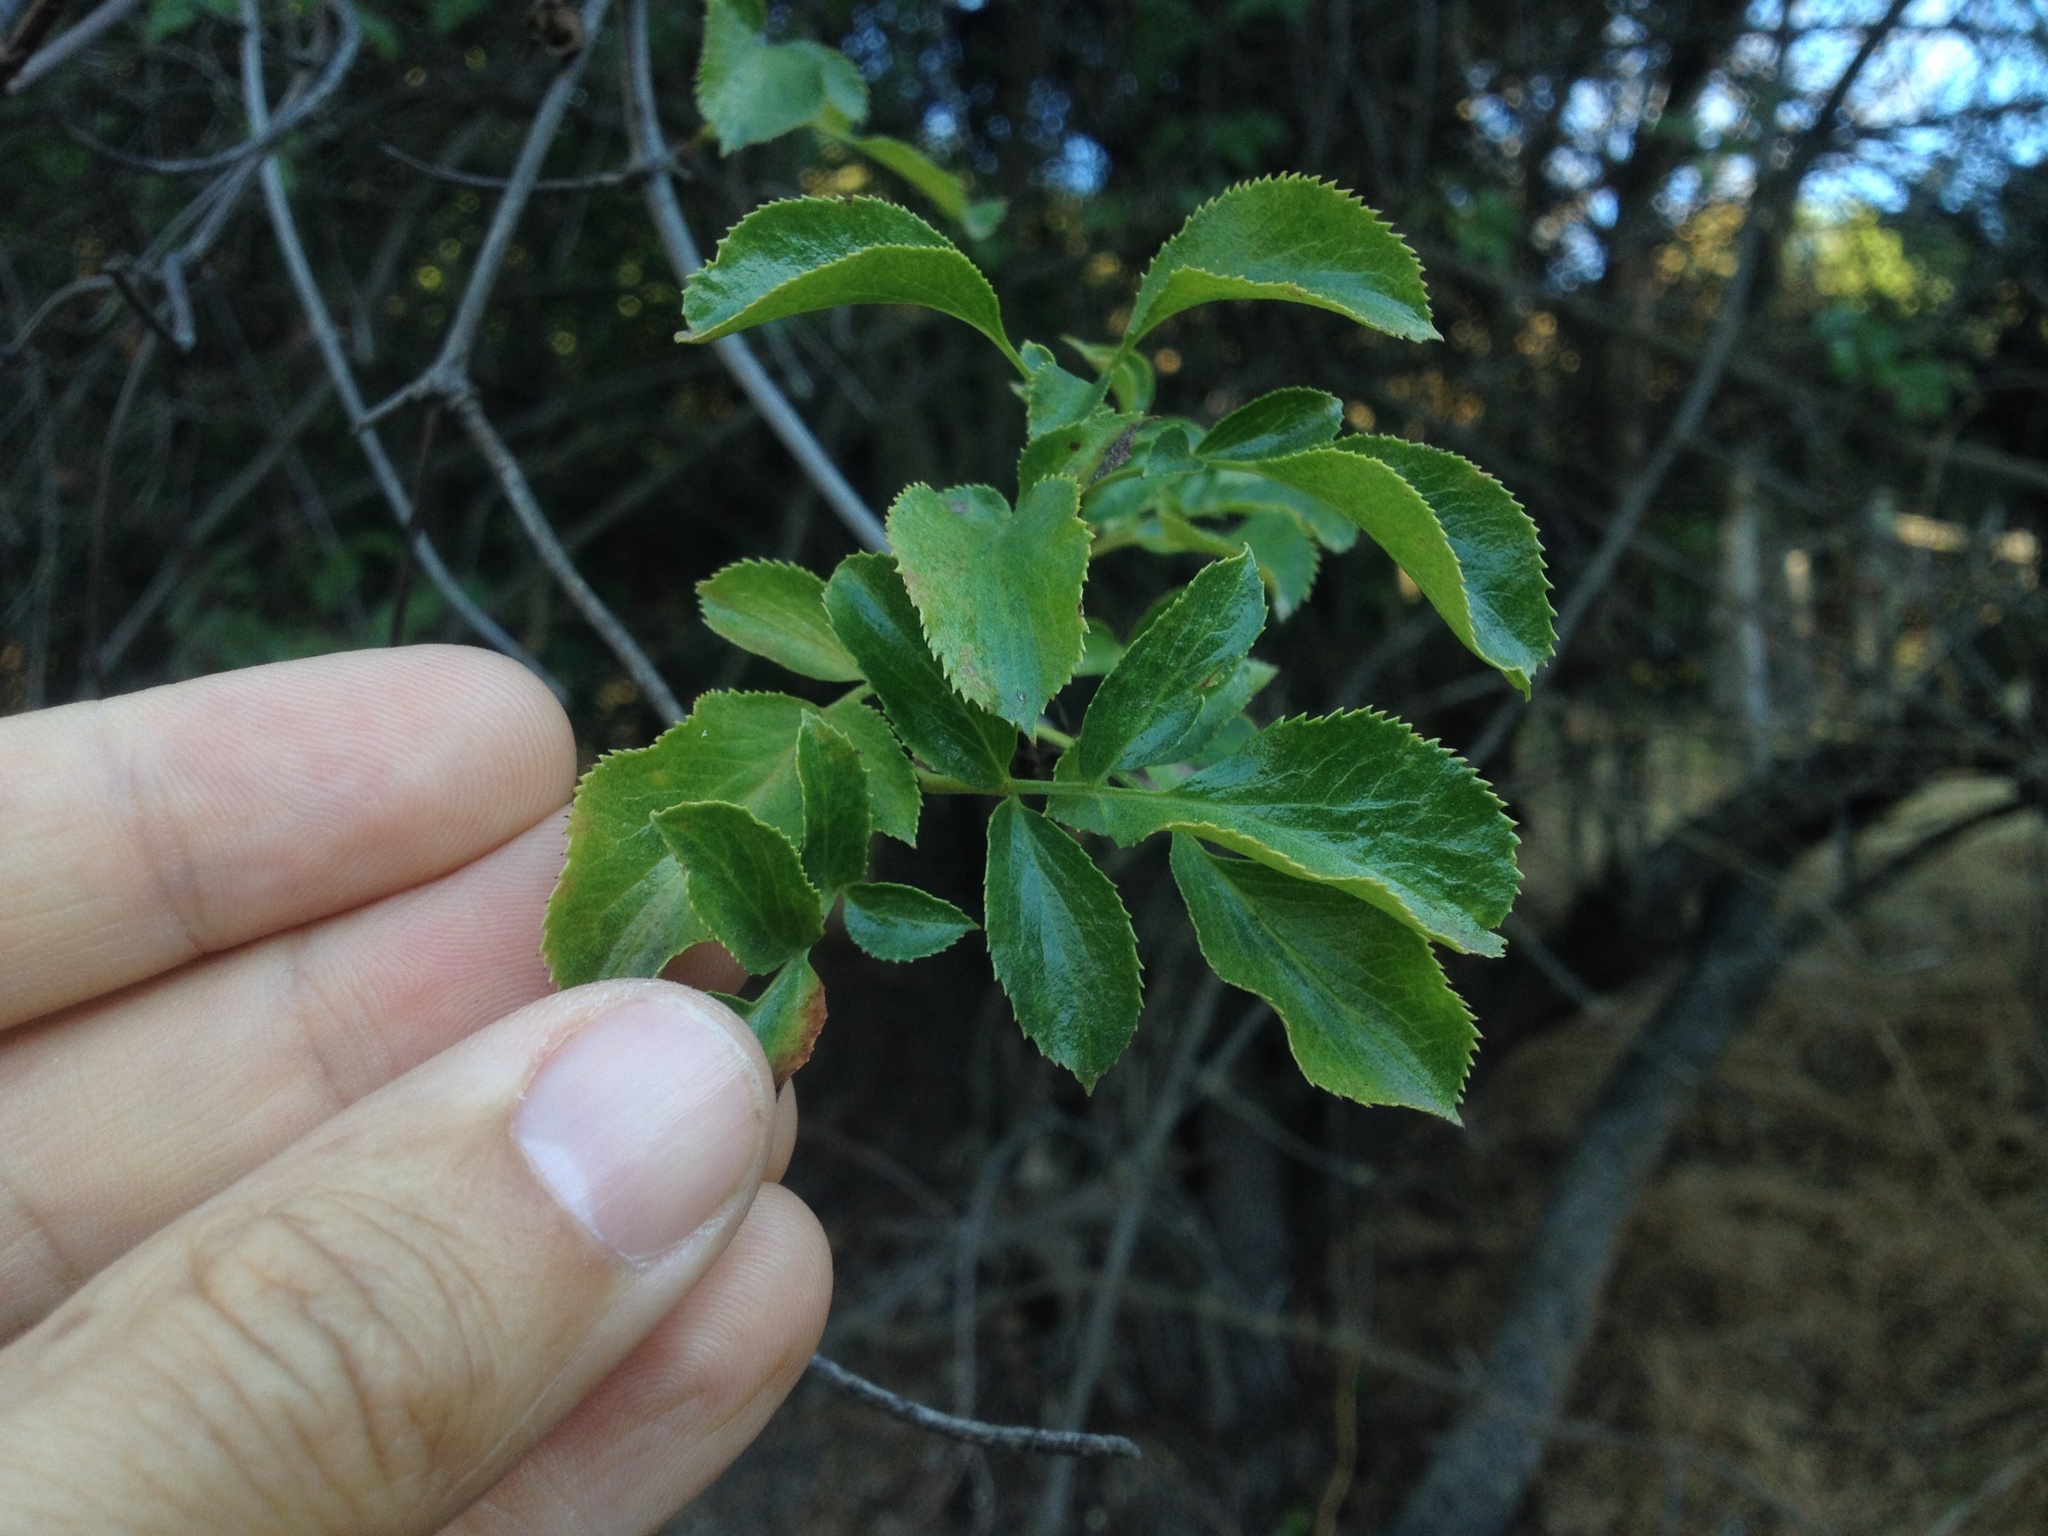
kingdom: Plantae
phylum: Tracheophyta
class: Magnoliopsida
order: Dipsacales
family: Viburnaceae
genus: Sambucus
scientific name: Sambucus cerulea
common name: Blue elder
